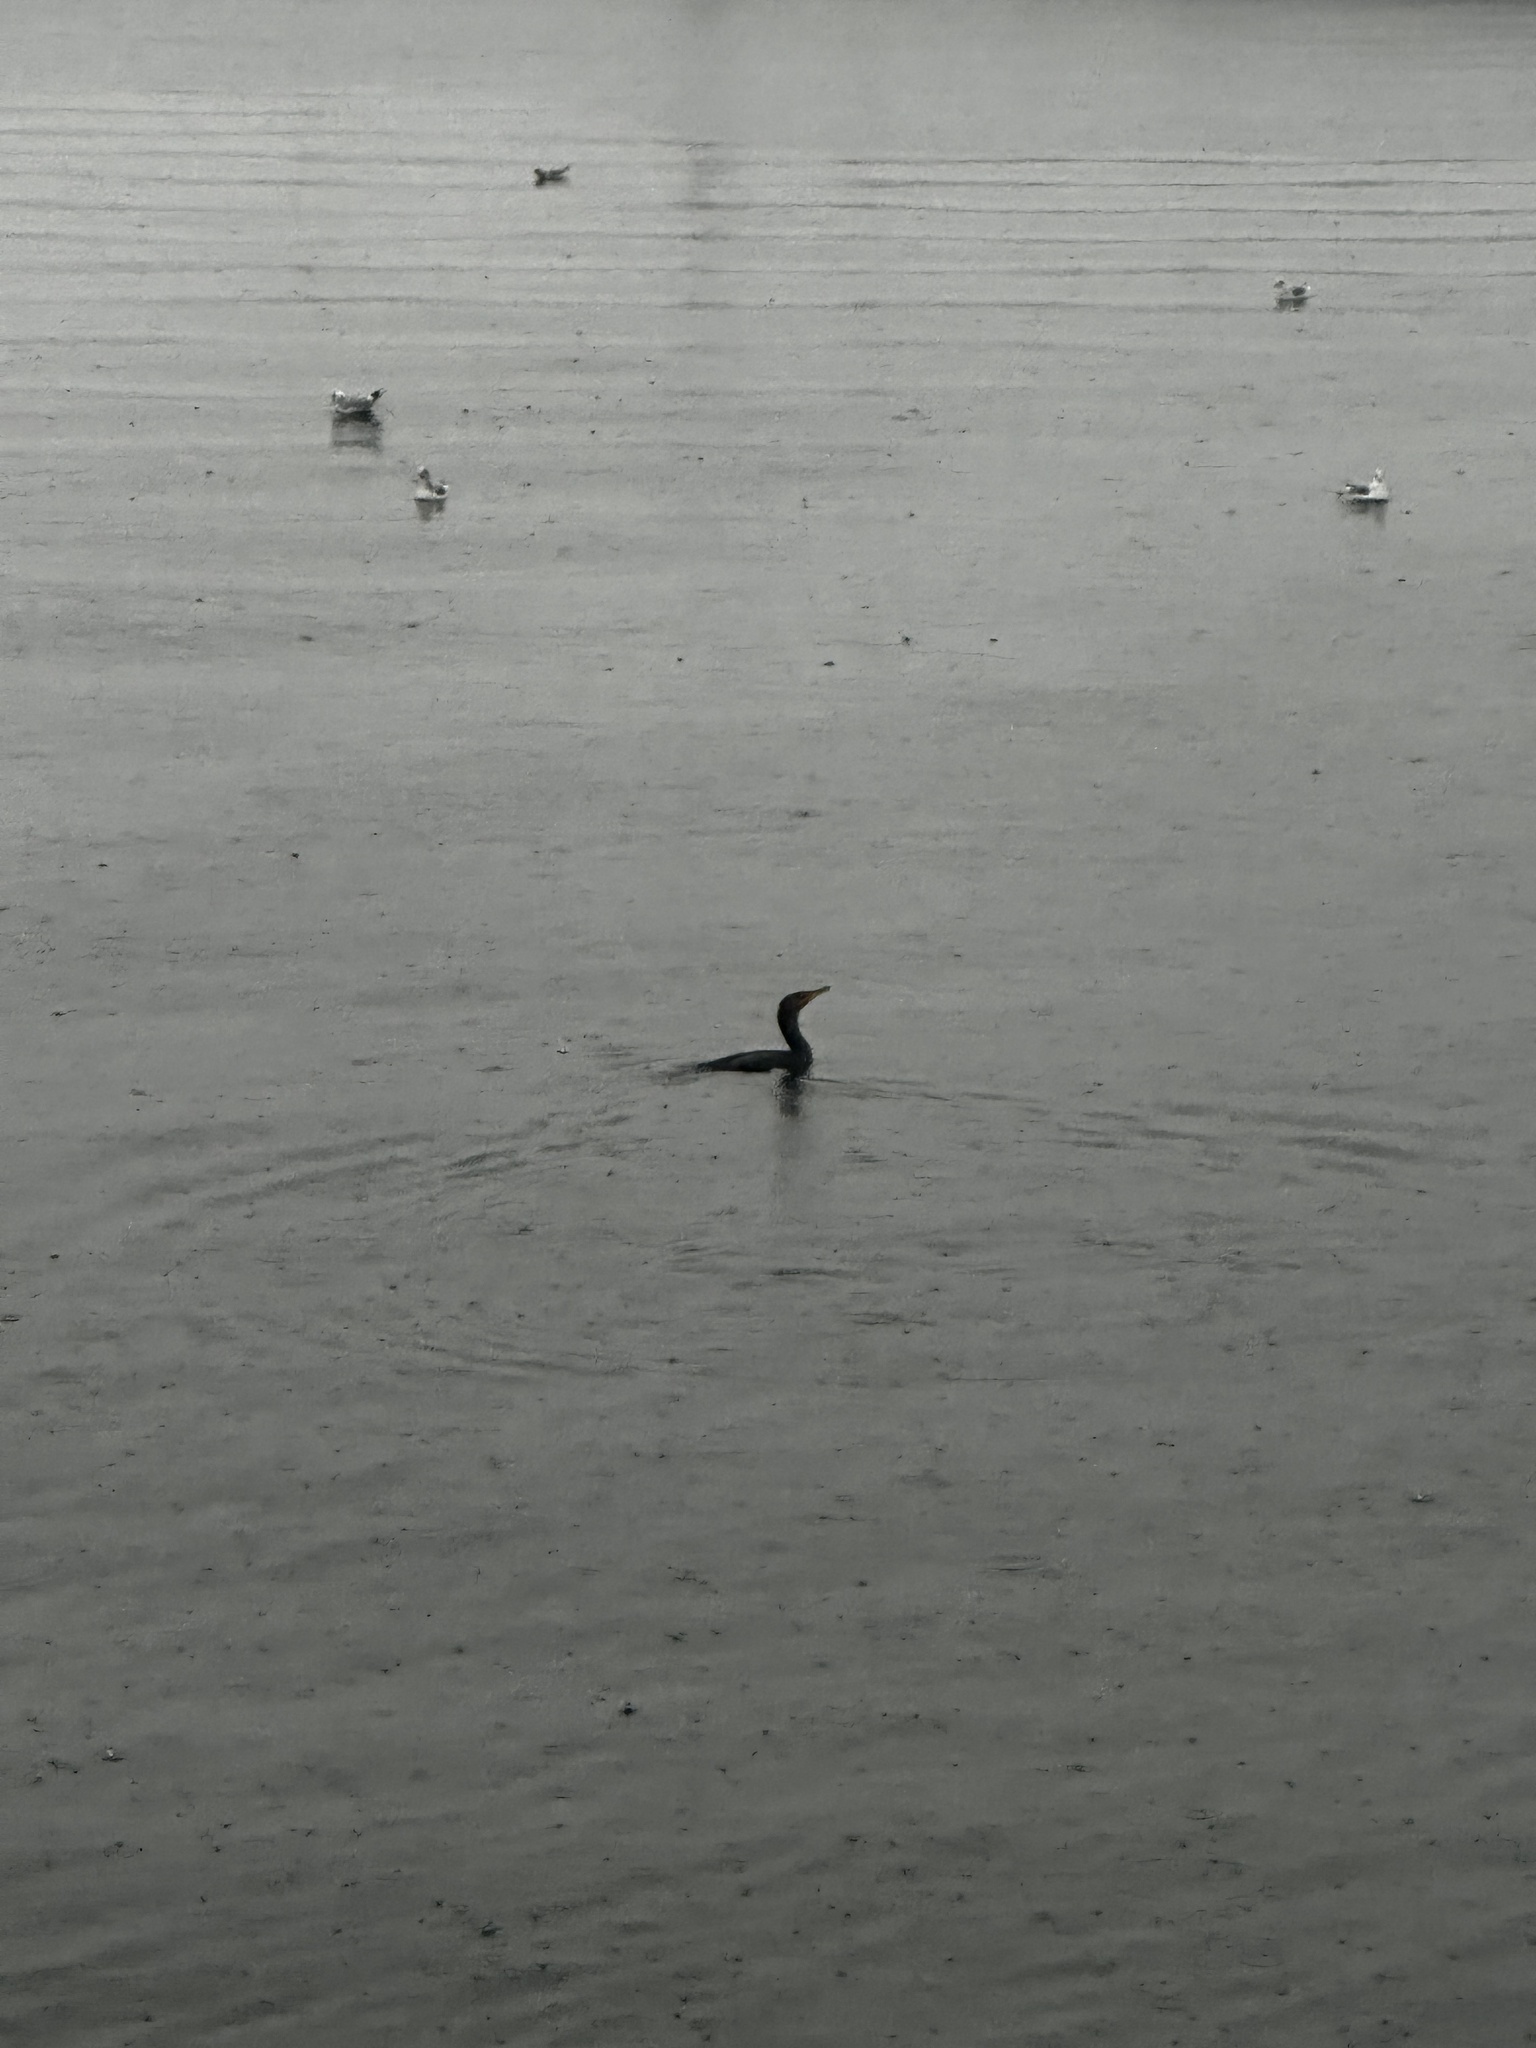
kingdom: Animalia
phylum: Chordata
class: Aves
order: Suliformes
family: Phalacrocoracidae
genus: Phalacrocorax
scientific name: Phalacrocorax auritus
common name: Double-crested cormorant
